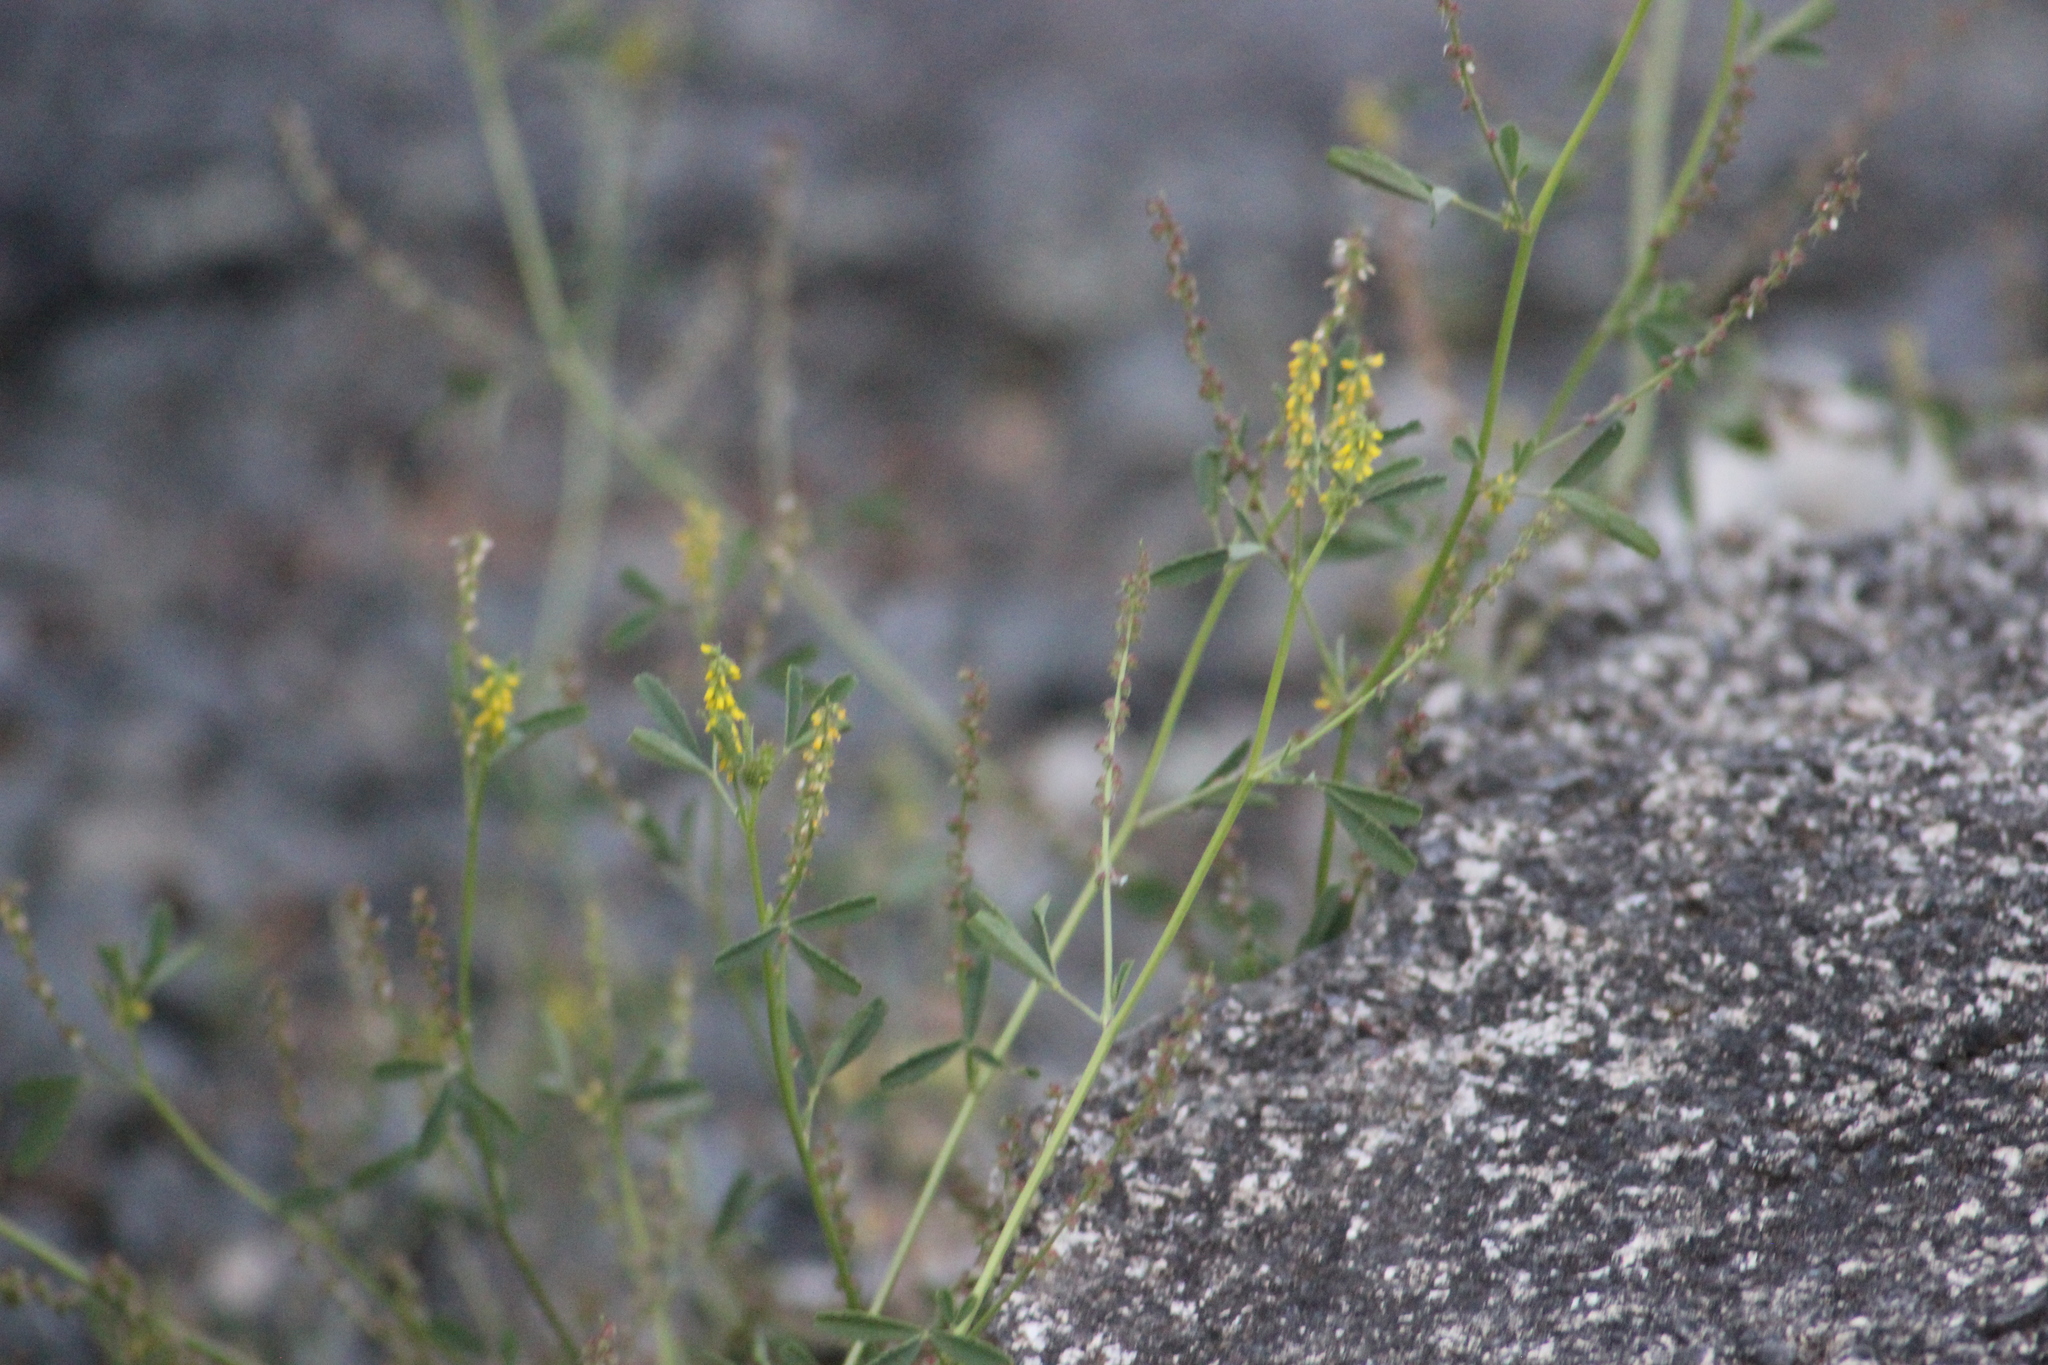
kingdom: Plantae
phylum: Tracheophyta
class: Magnoliopsida
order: Fabales
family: Fabaceae
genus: Melilotus
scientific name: Melilotus indicus
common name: Small melilot
